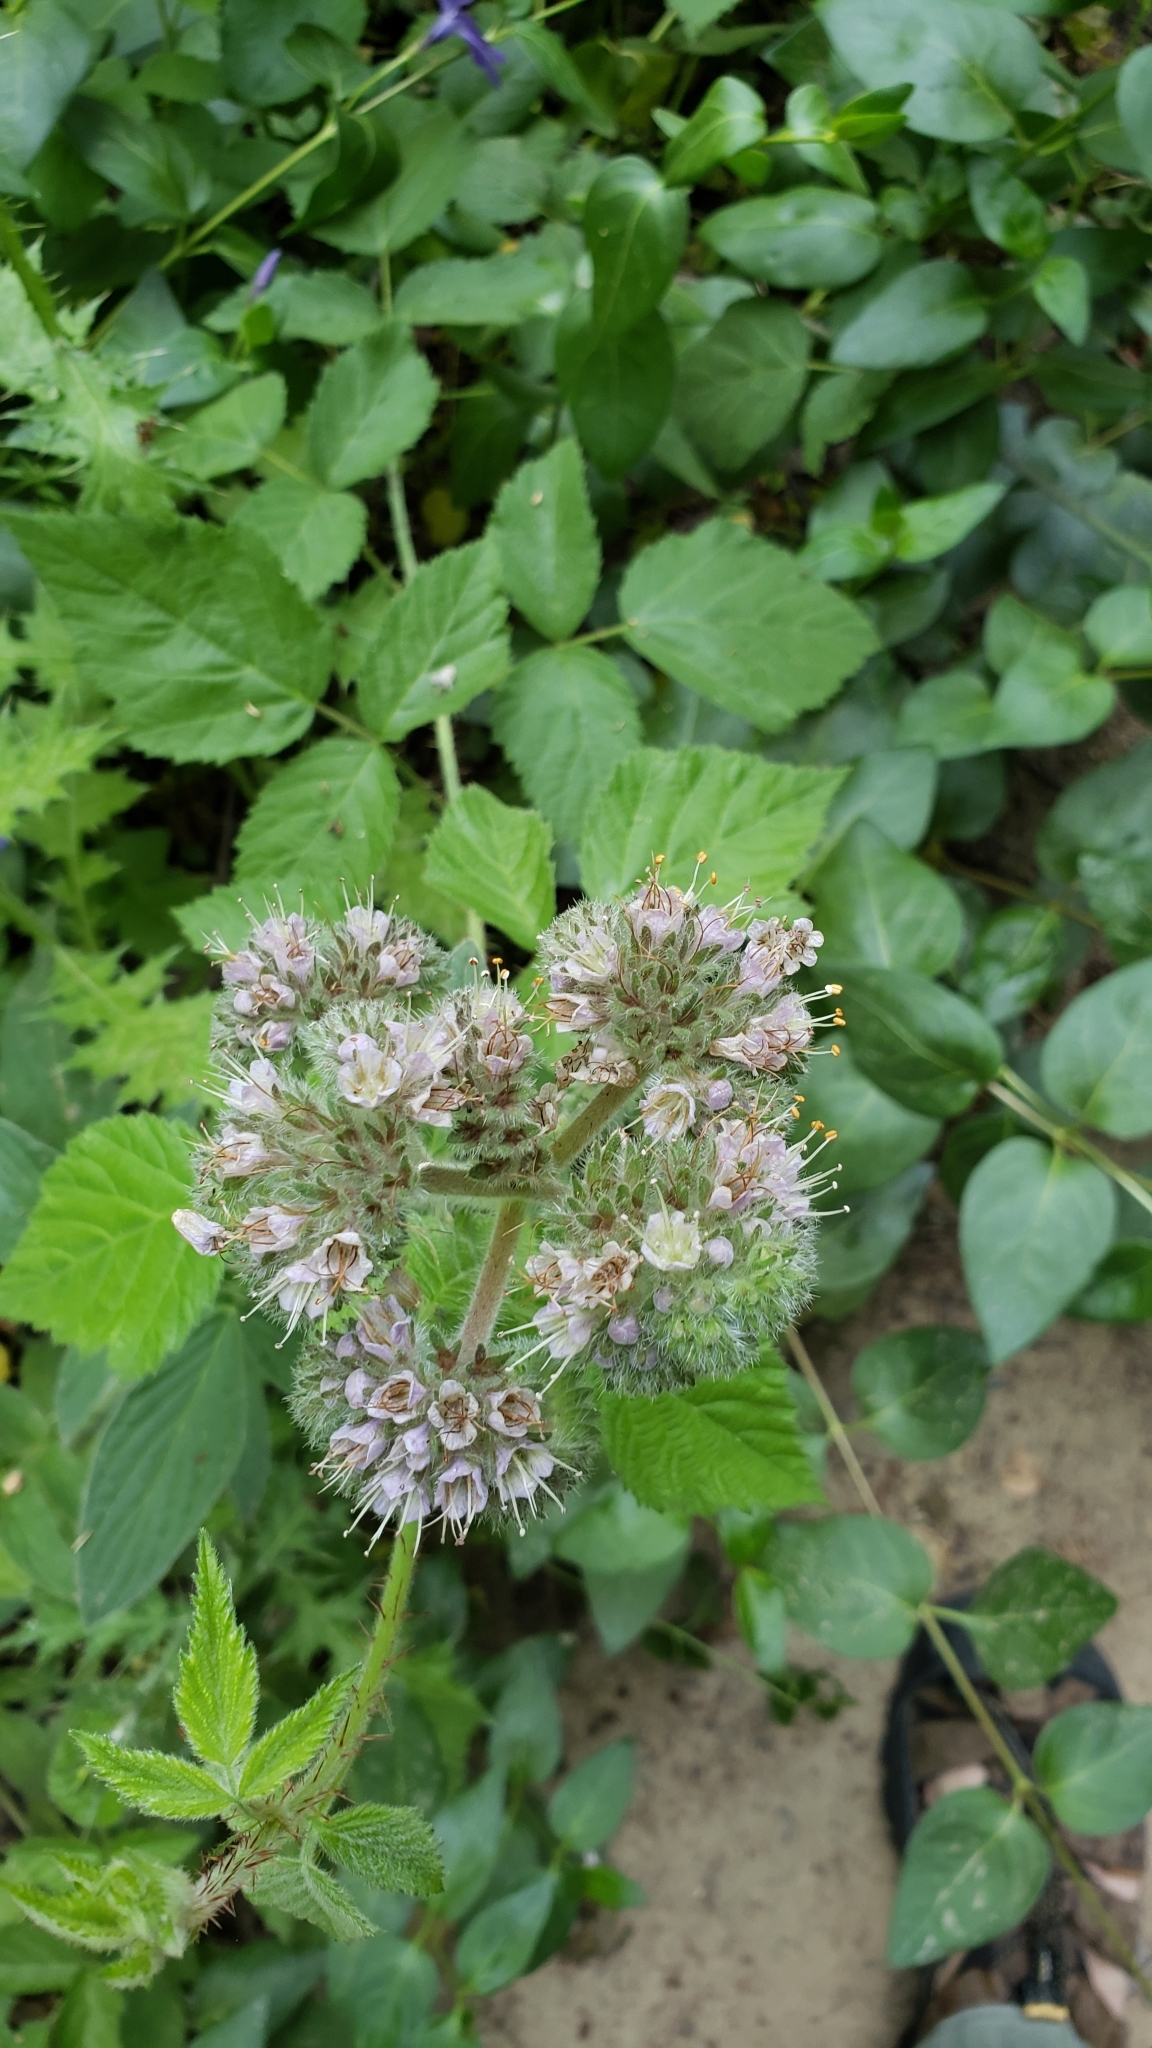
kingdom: Plantae
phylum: Tracheophyta
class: Magnoliopsida
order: Boraginales
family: Hydrophyllaceae
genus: Phacelia
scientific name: Phacelia californica
